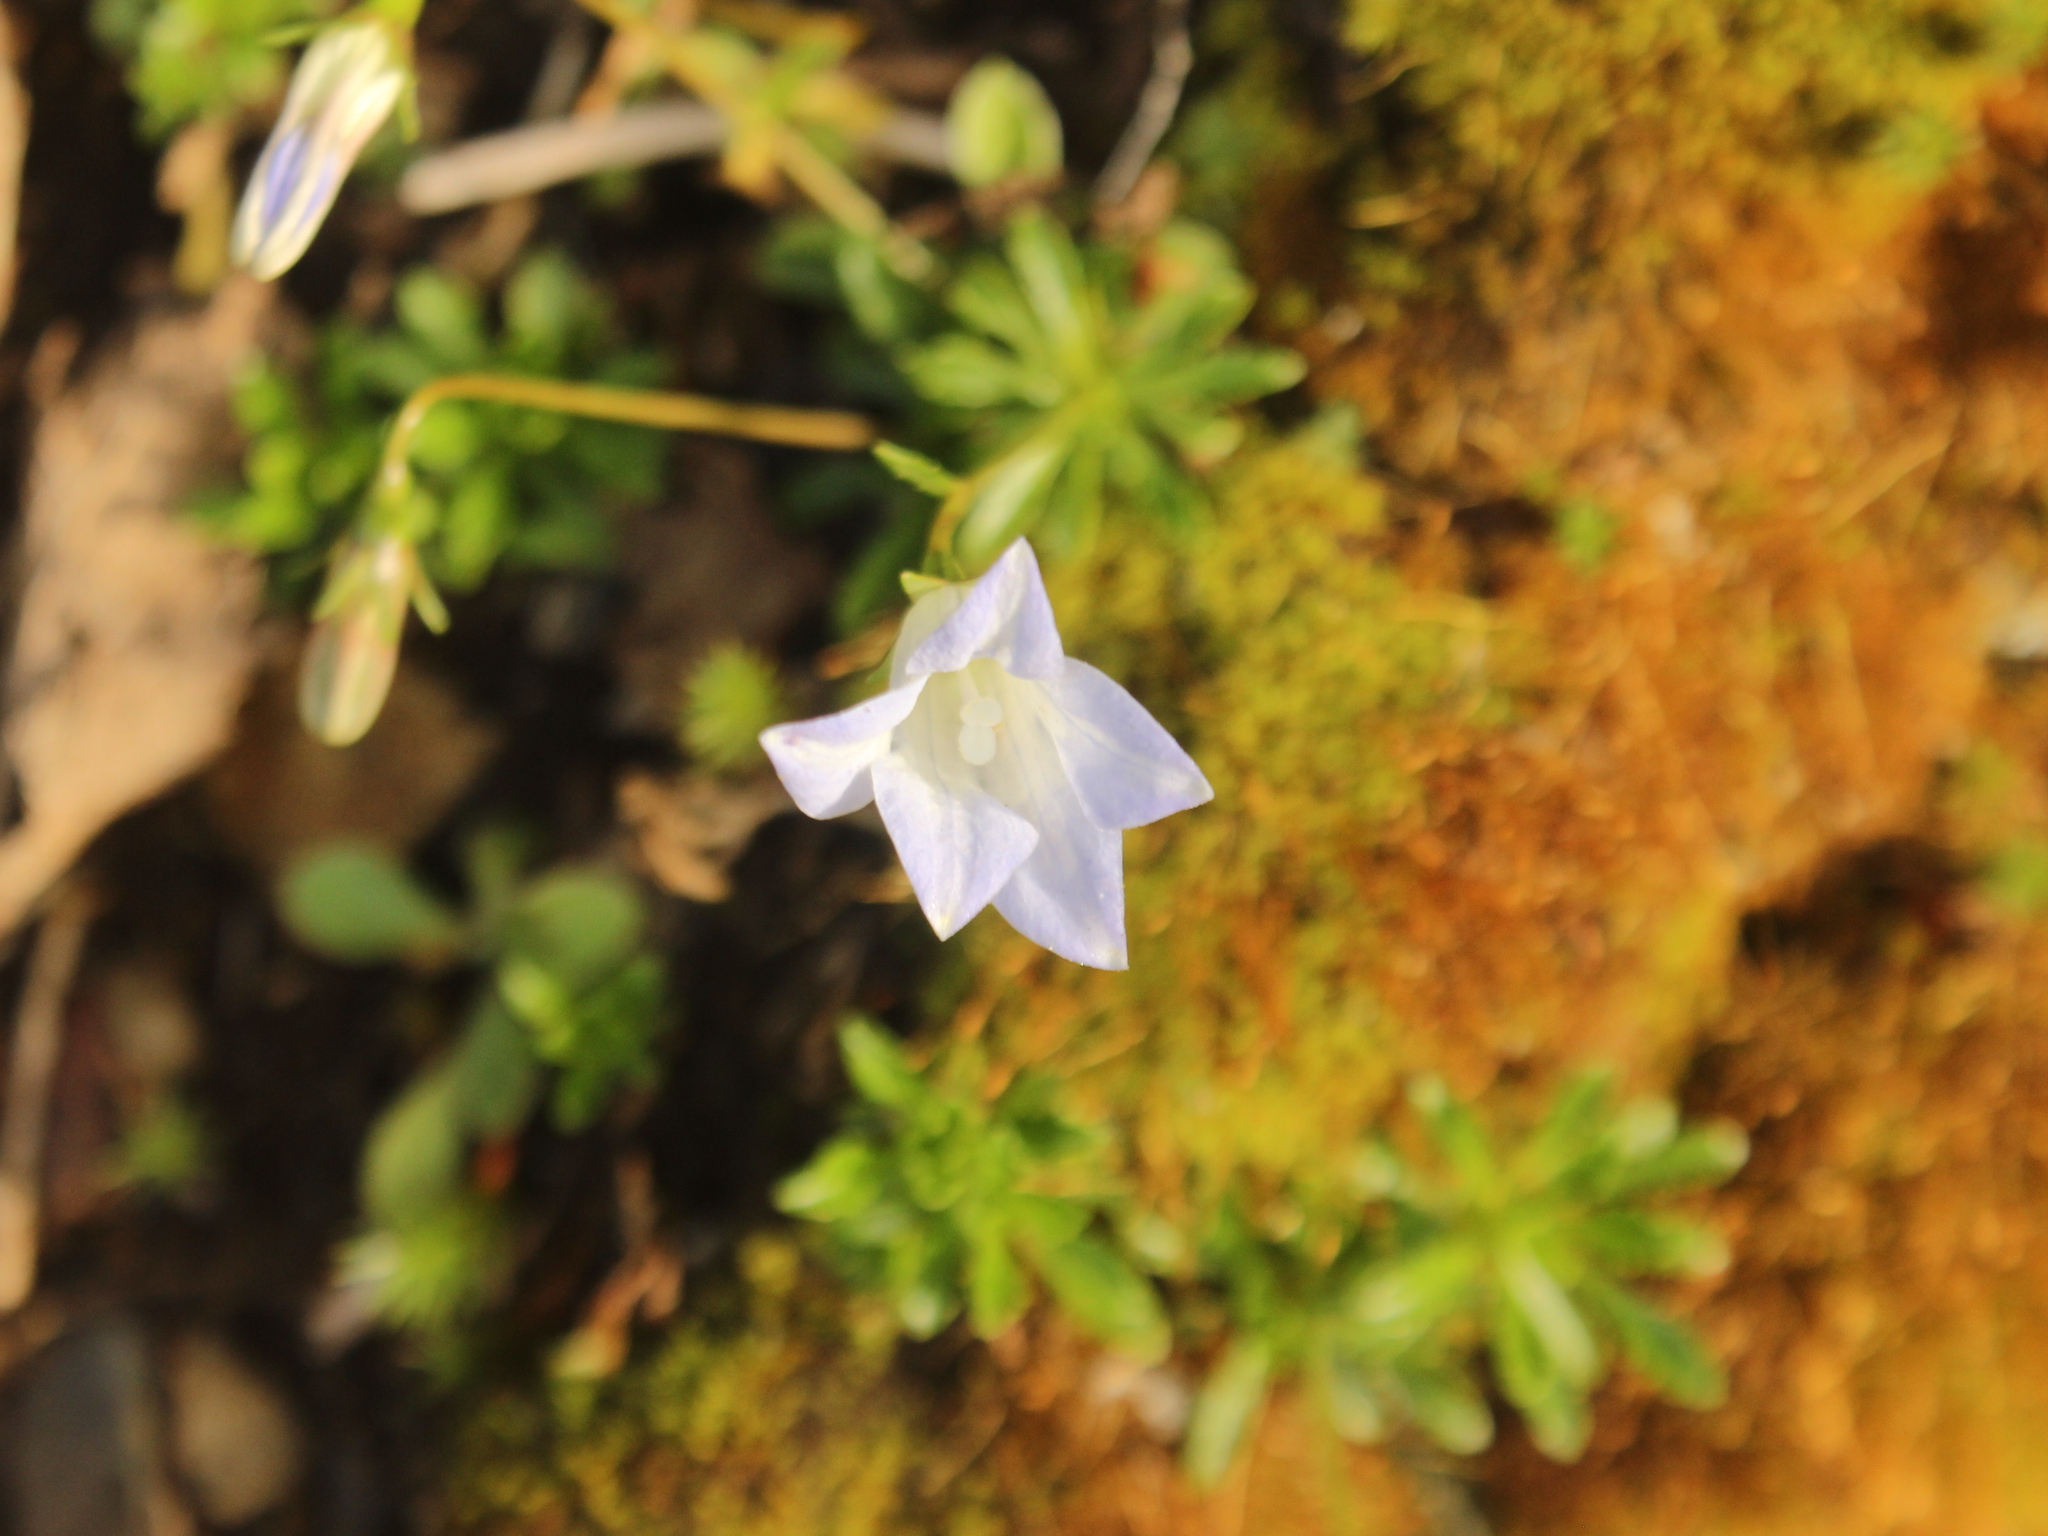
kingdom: Plantae
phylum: Tracheophyta
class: Magnoliopsida
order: Asterales
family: Campanulaceae
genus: Wahlenbergia
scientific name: Wahlenbergia pygmaea
